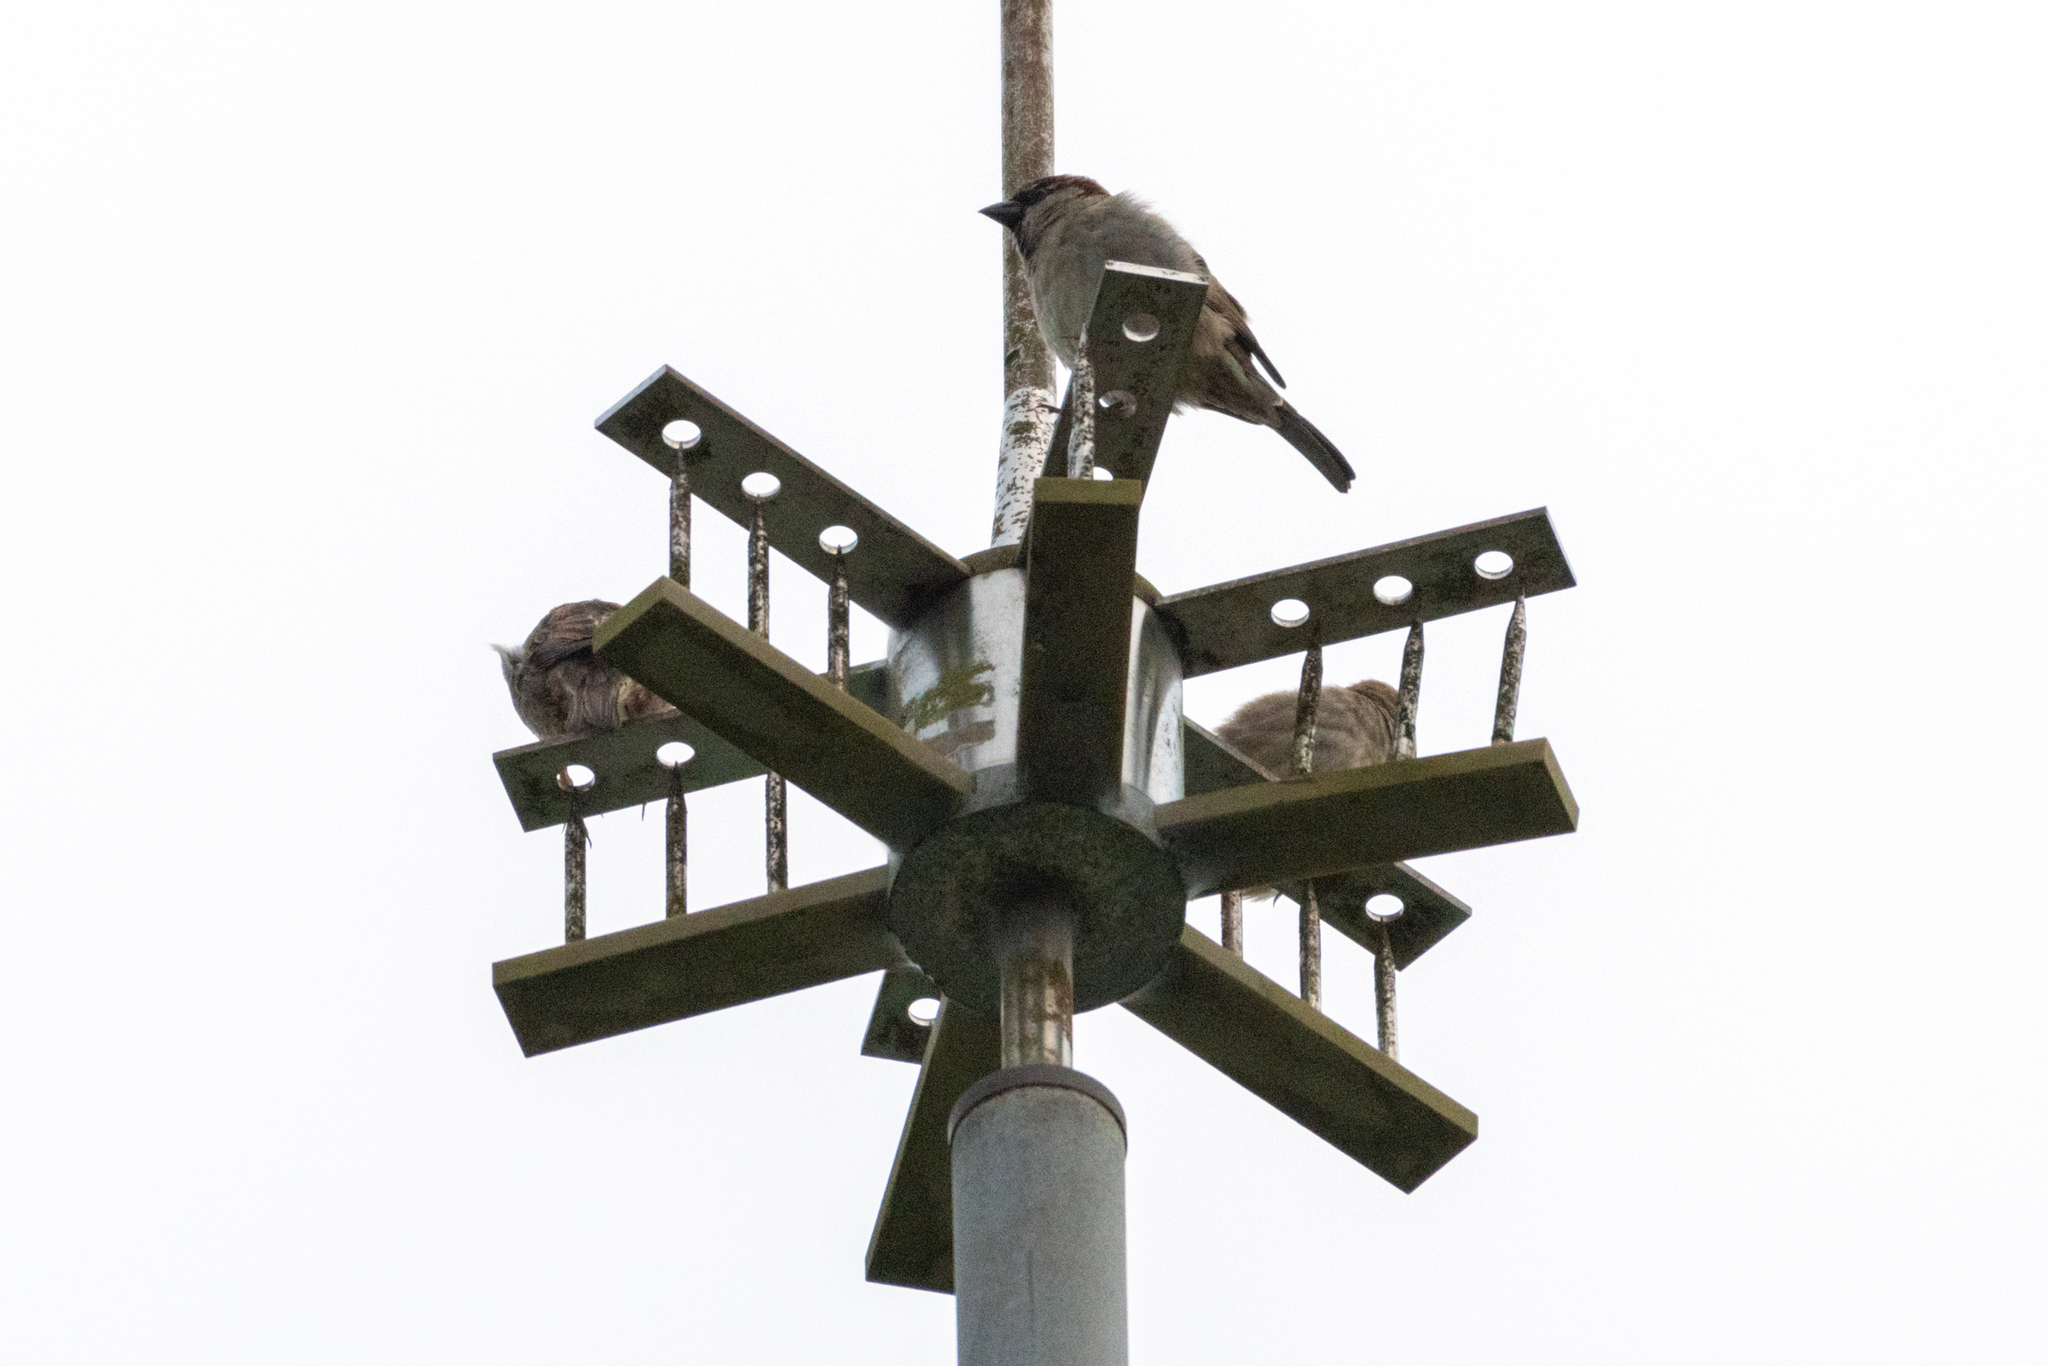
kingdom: Animalia
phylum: Chordata
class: Aves
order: Passeriformes
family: Passeridae
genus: Passer
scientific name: Passer domesticus
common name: House sparrow
